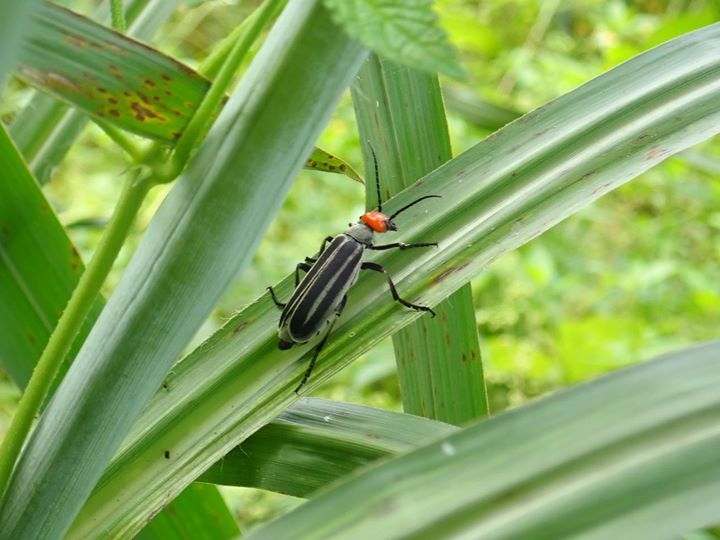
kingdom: Animalia
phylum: Arthropoda
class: Insecta
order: Coleoptera
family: Meloidae
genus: Epicauta
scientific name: Epicauta waterhousei
